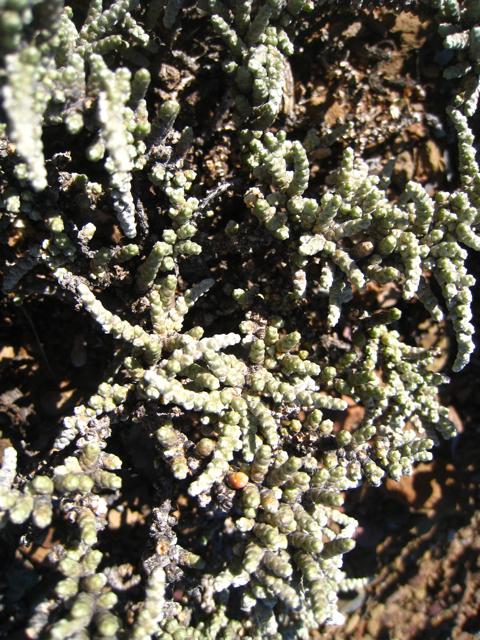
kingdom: Plantae
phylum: Tracheophyta
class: Magnoliopsida
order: Caryophyllales
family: Amaranthaceae
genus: Caroxylon
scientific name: Caroxylon tuberculatum
